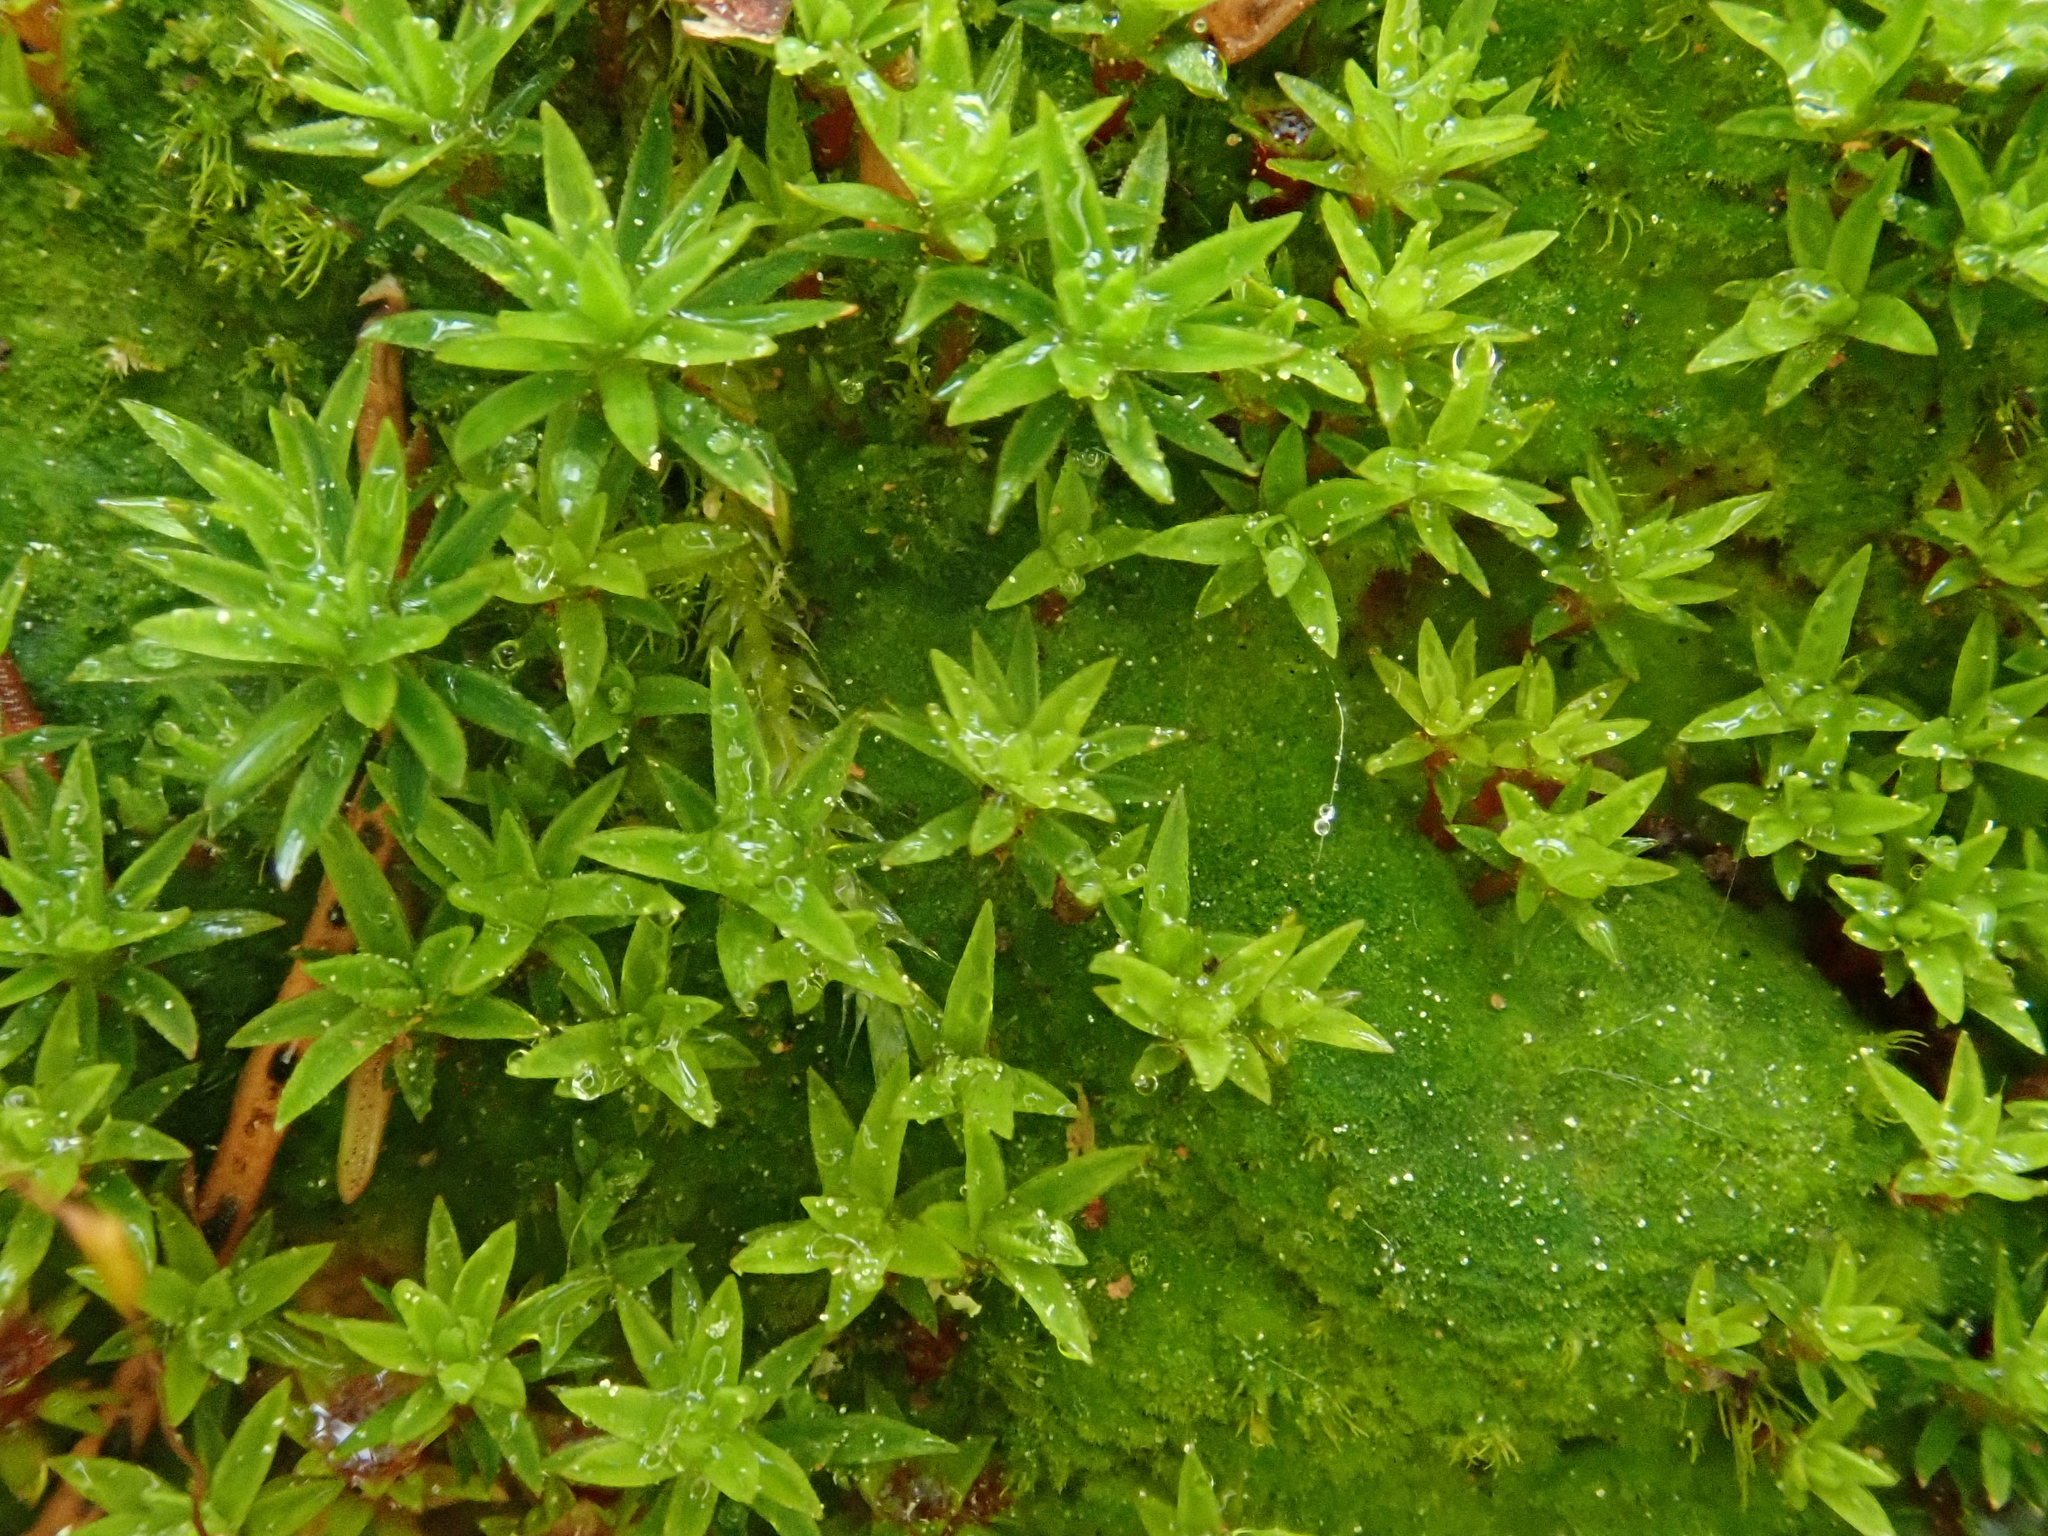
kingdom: Plantae
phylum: Bryophyta
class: Polytrichopsida
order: Polytrichales
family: Polytrichaceae
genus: Pogonatum
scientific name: Pogonatum aloides
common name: Aloe haircap
